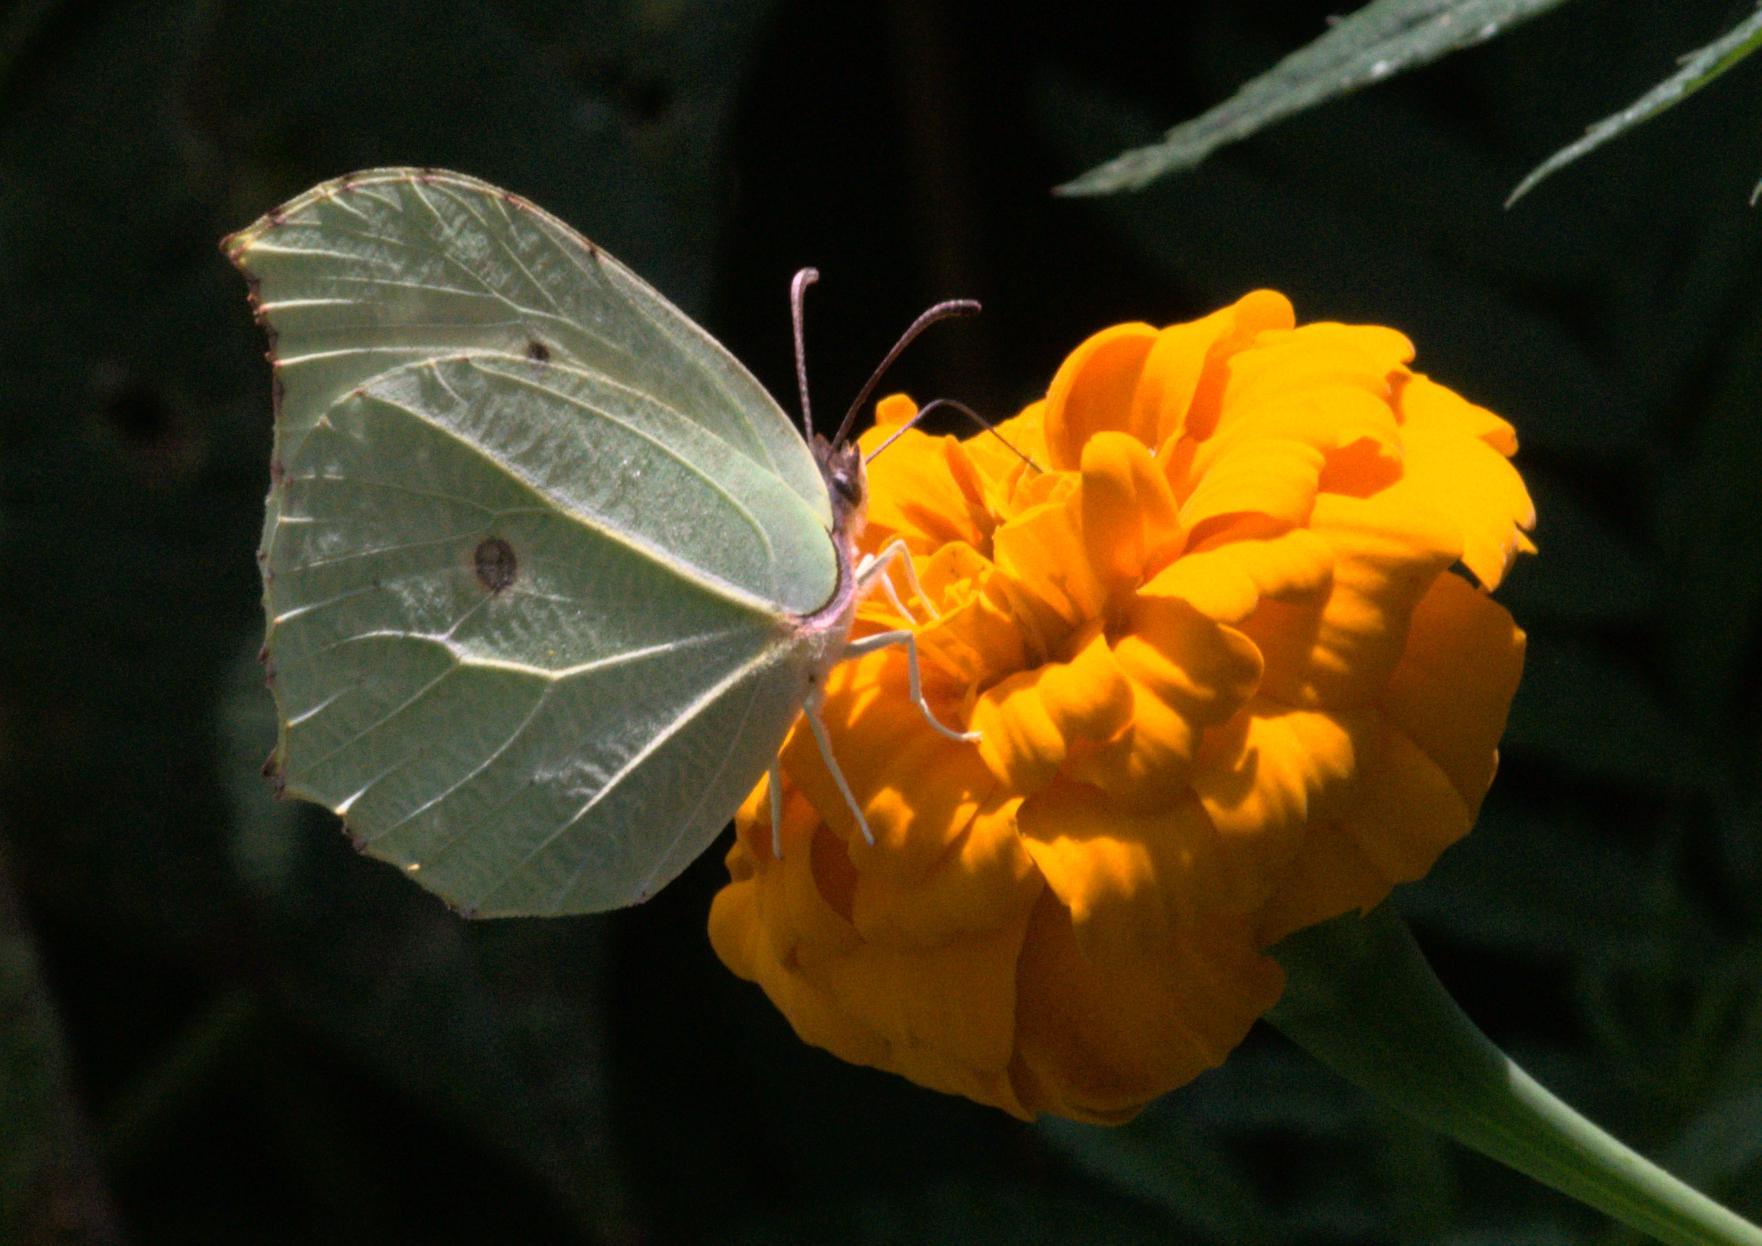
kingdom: Animalia
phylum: Arthropoda
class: Insecta
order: Lepidoptera
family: Pieridae
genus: Gonepteryx
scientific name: Gonepteryx
